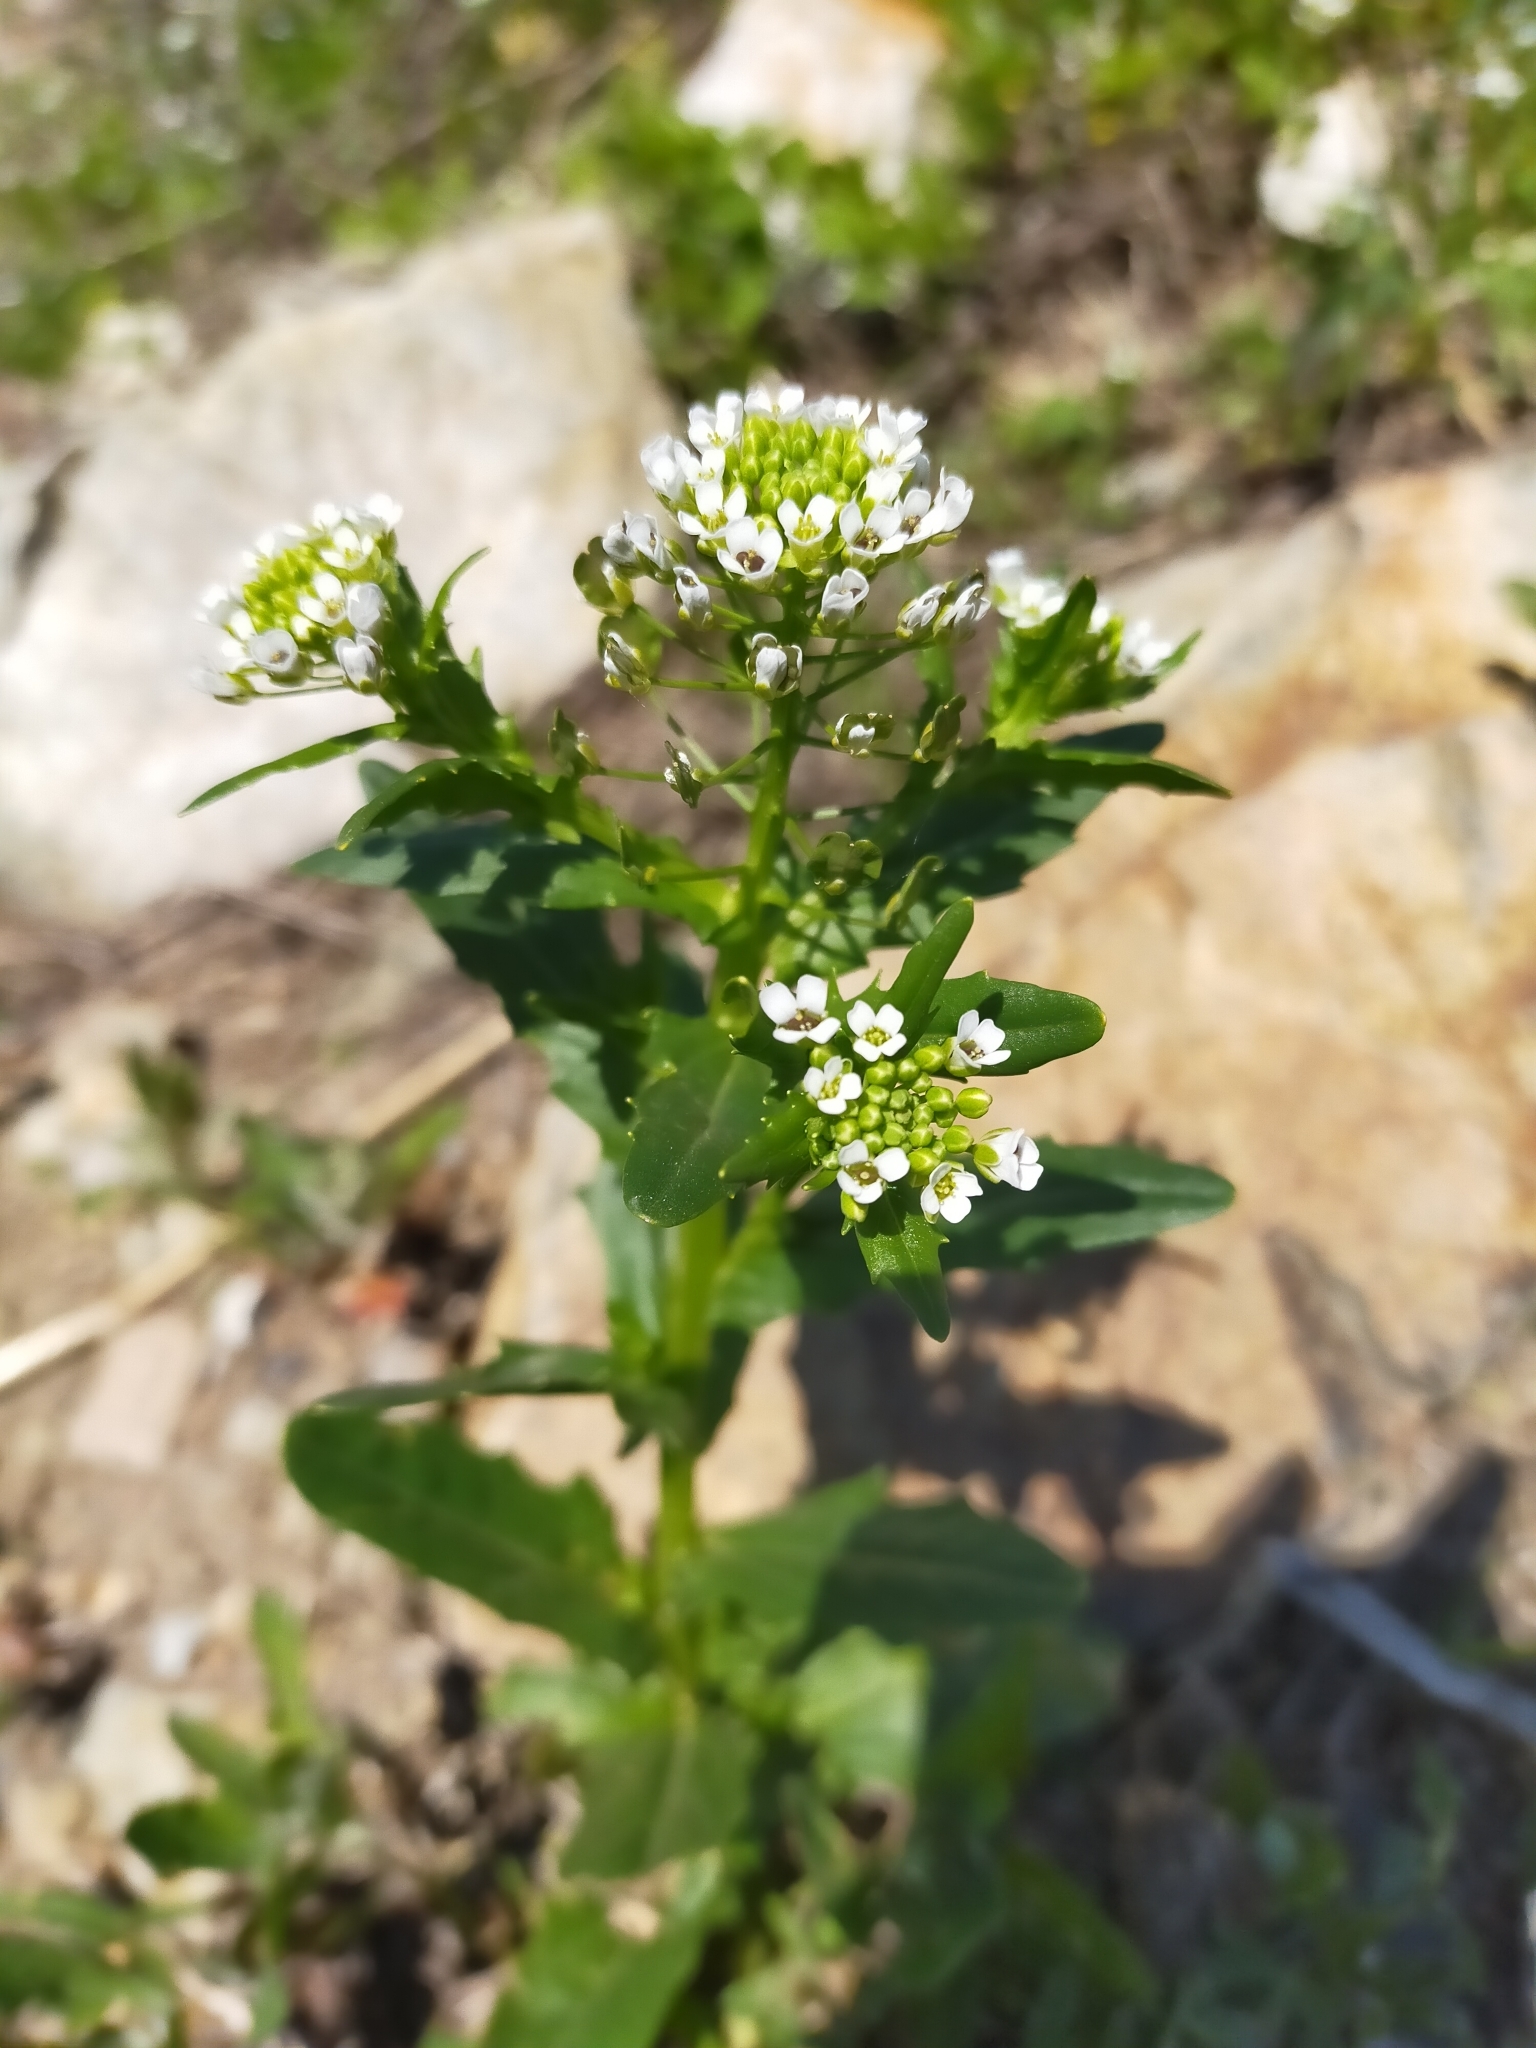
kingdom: Plantae
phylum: Tracheophyta
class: Magnoliopsida
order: Brassicales
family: Brassicaceae
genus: Thlaspi
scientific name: Thlaspi arvense
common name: Field pennycress
